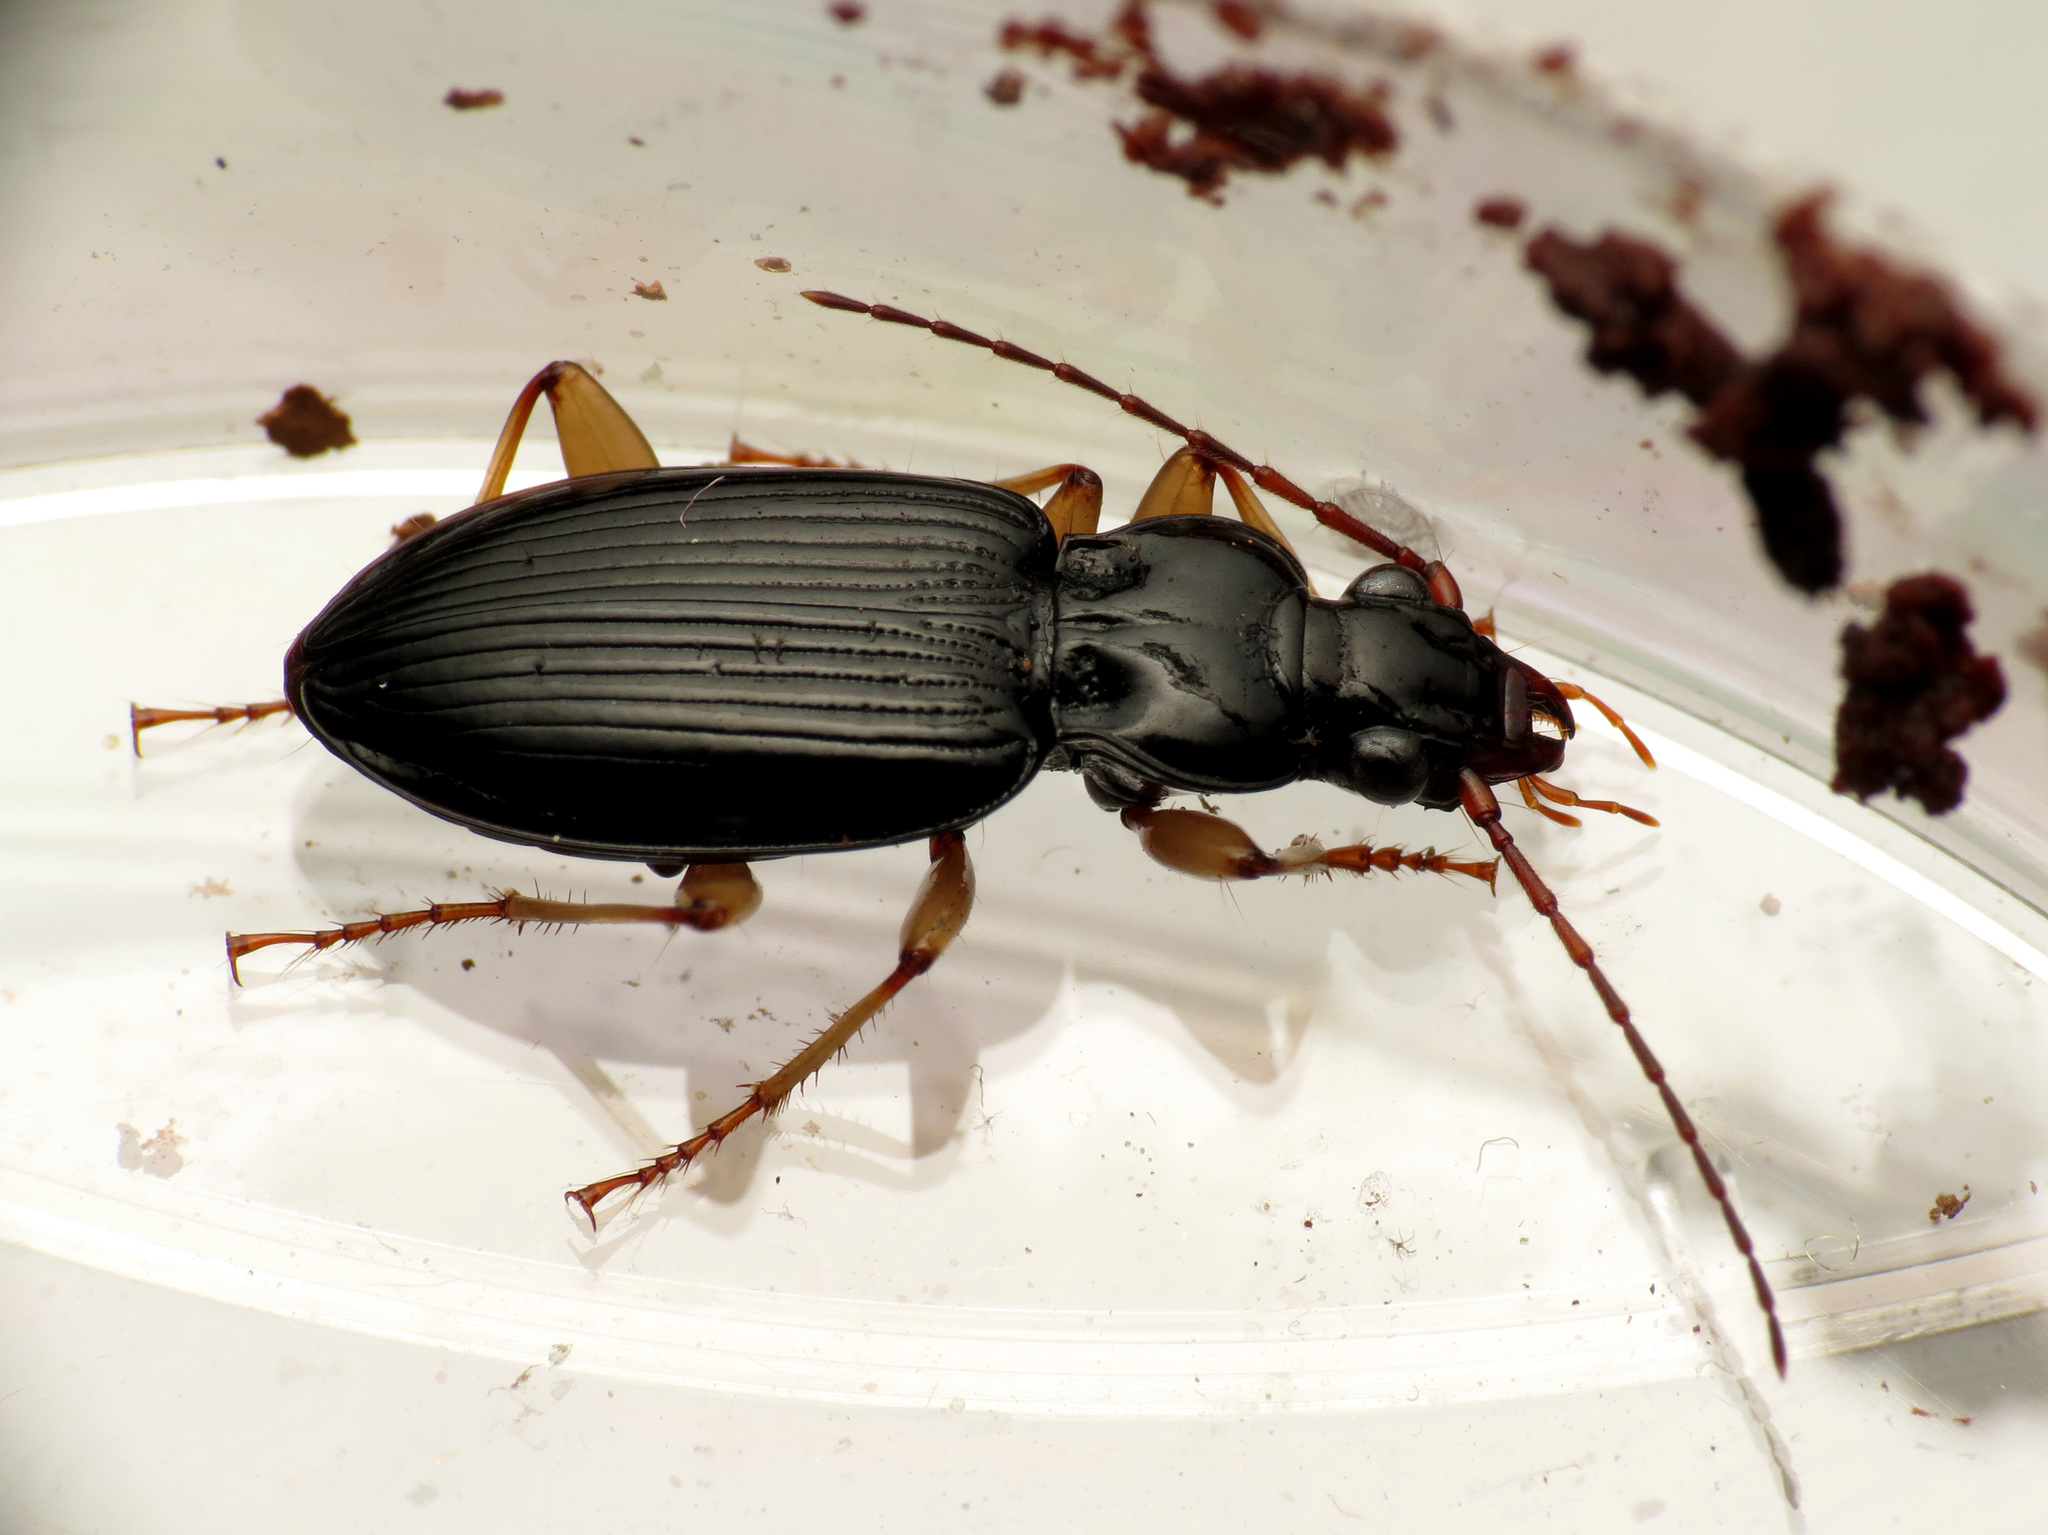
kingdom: Animalia
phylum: Arthropoda
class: Insecta
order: Coleoptera
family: Carabidae
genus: Patrobus
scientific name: Patrobus longicornis
